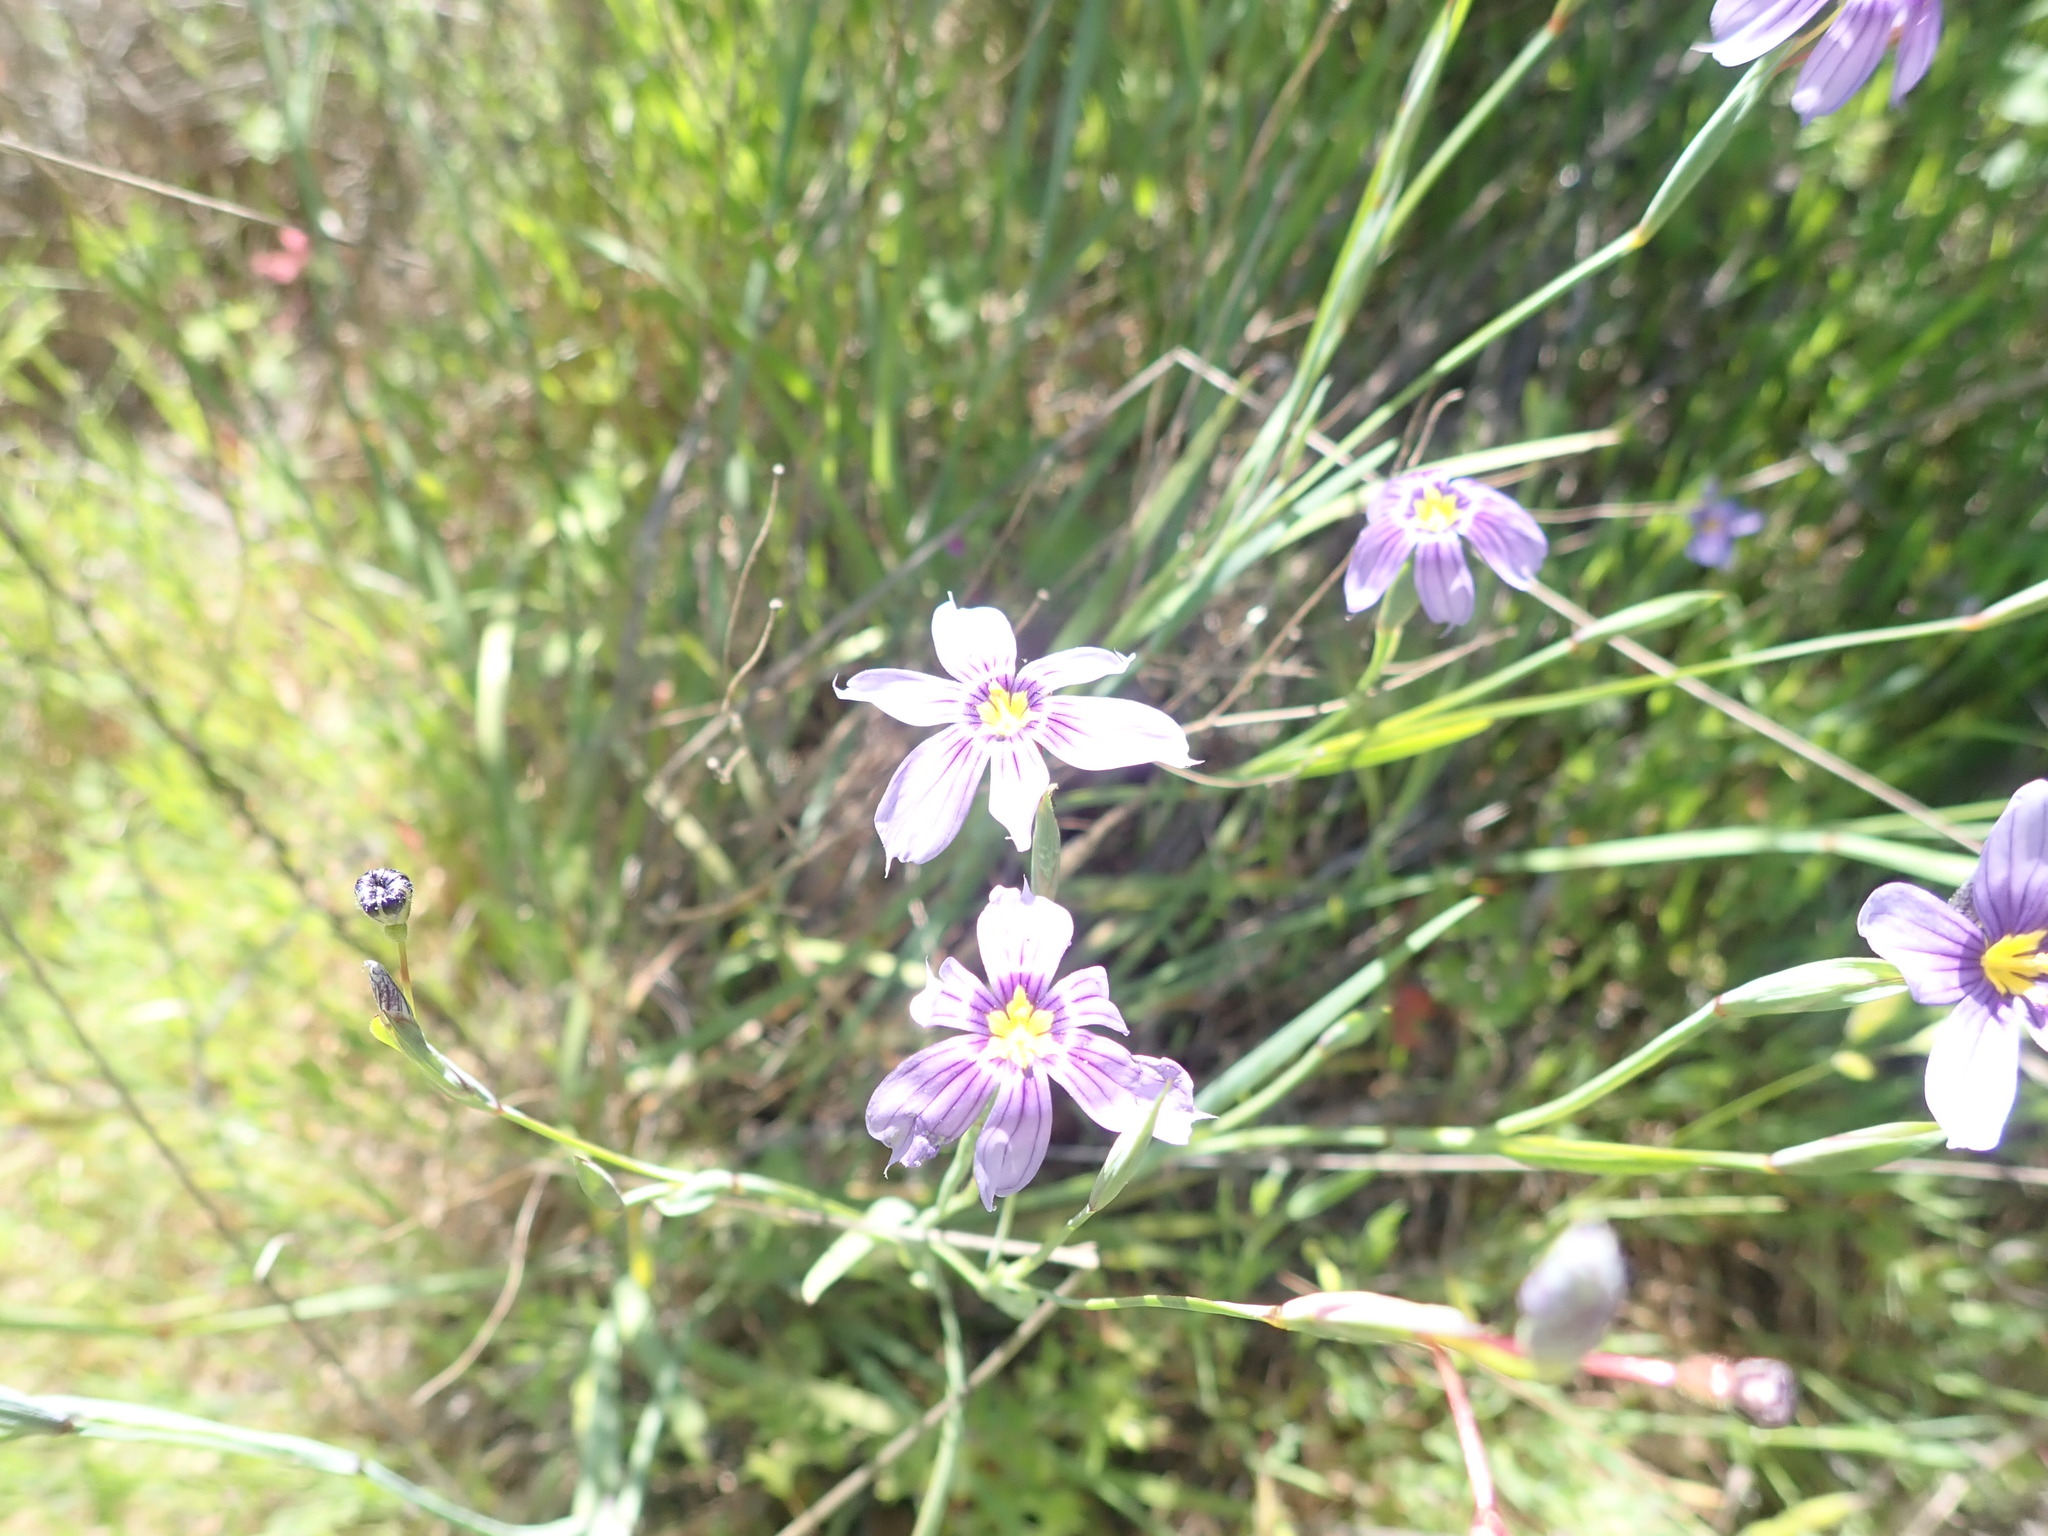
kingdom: Plantae
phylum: Tracheophyta
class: Liliopsida
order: Asparagales
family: Iridaceae
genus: Sisyrinchium
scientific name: Sisyrinchium bellum
